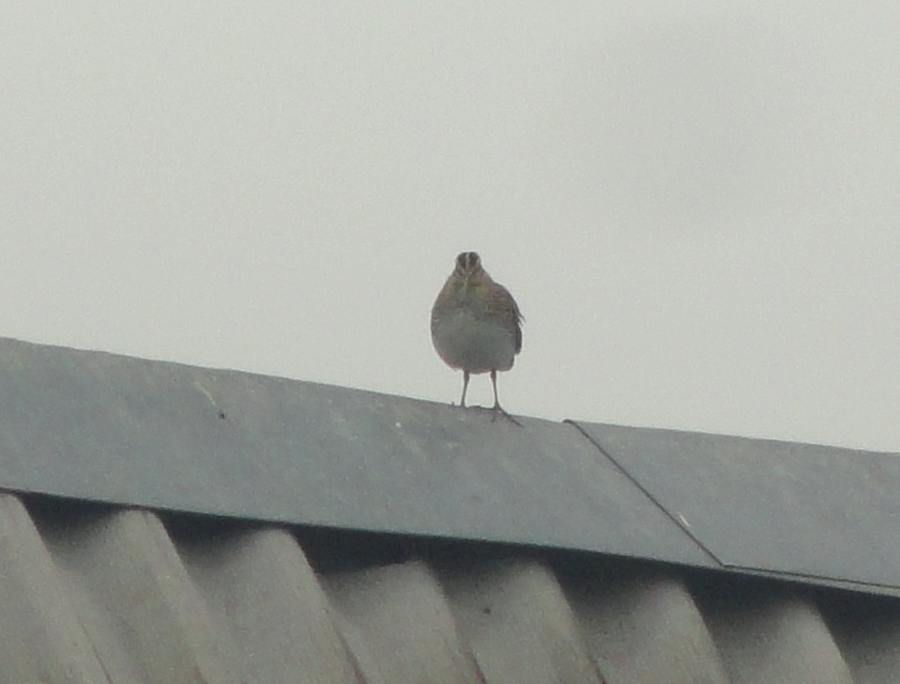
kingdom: Animalia
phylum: Chordata
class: Aves
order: Charadriiformes
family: Scolopacidae
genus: Gallinago
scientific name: Gallinago gallinago
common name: Common snipe
